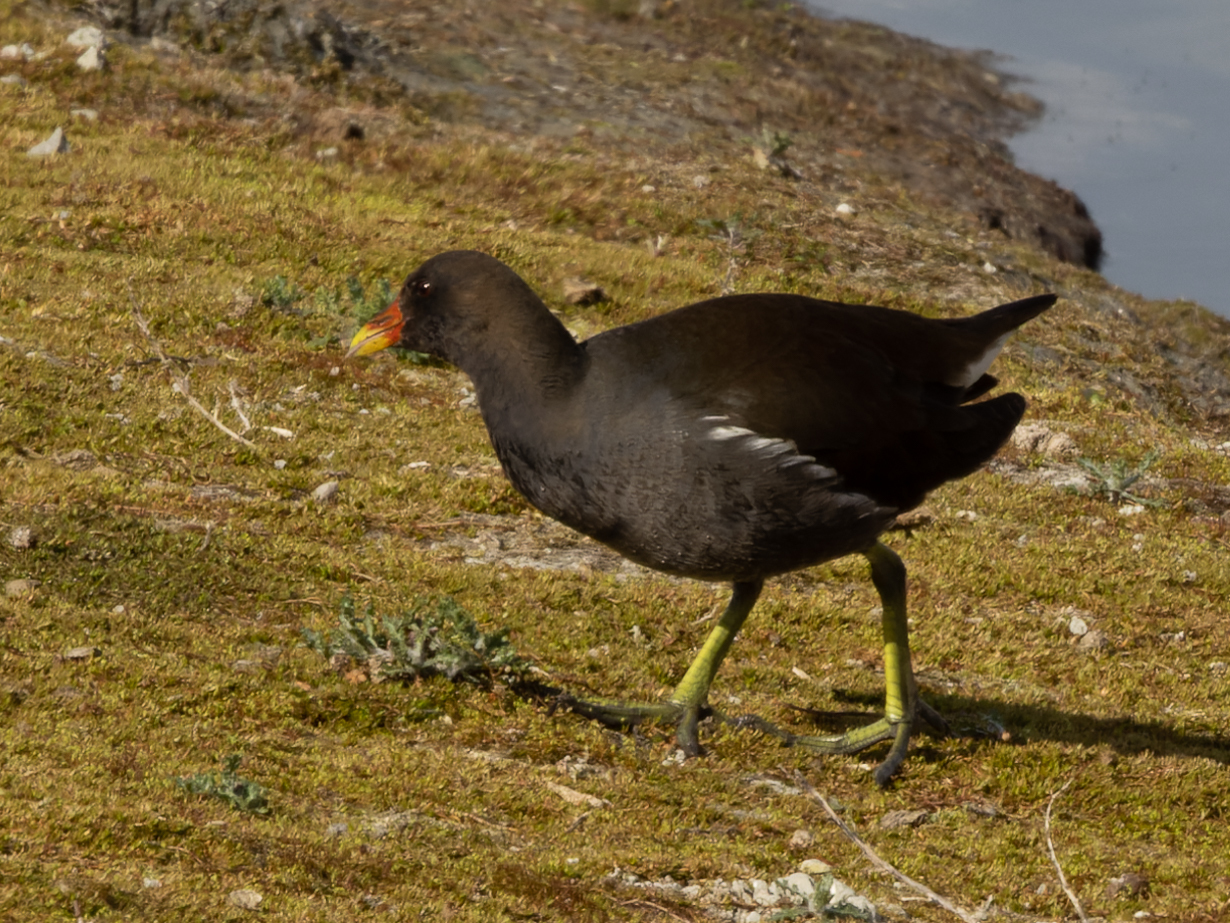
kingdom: Animalia
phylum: Chordata
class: Aves
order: Gruiformes
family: Rallidae
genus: Gallinula
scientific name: Gallinula chloropus
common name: Common moorhen
